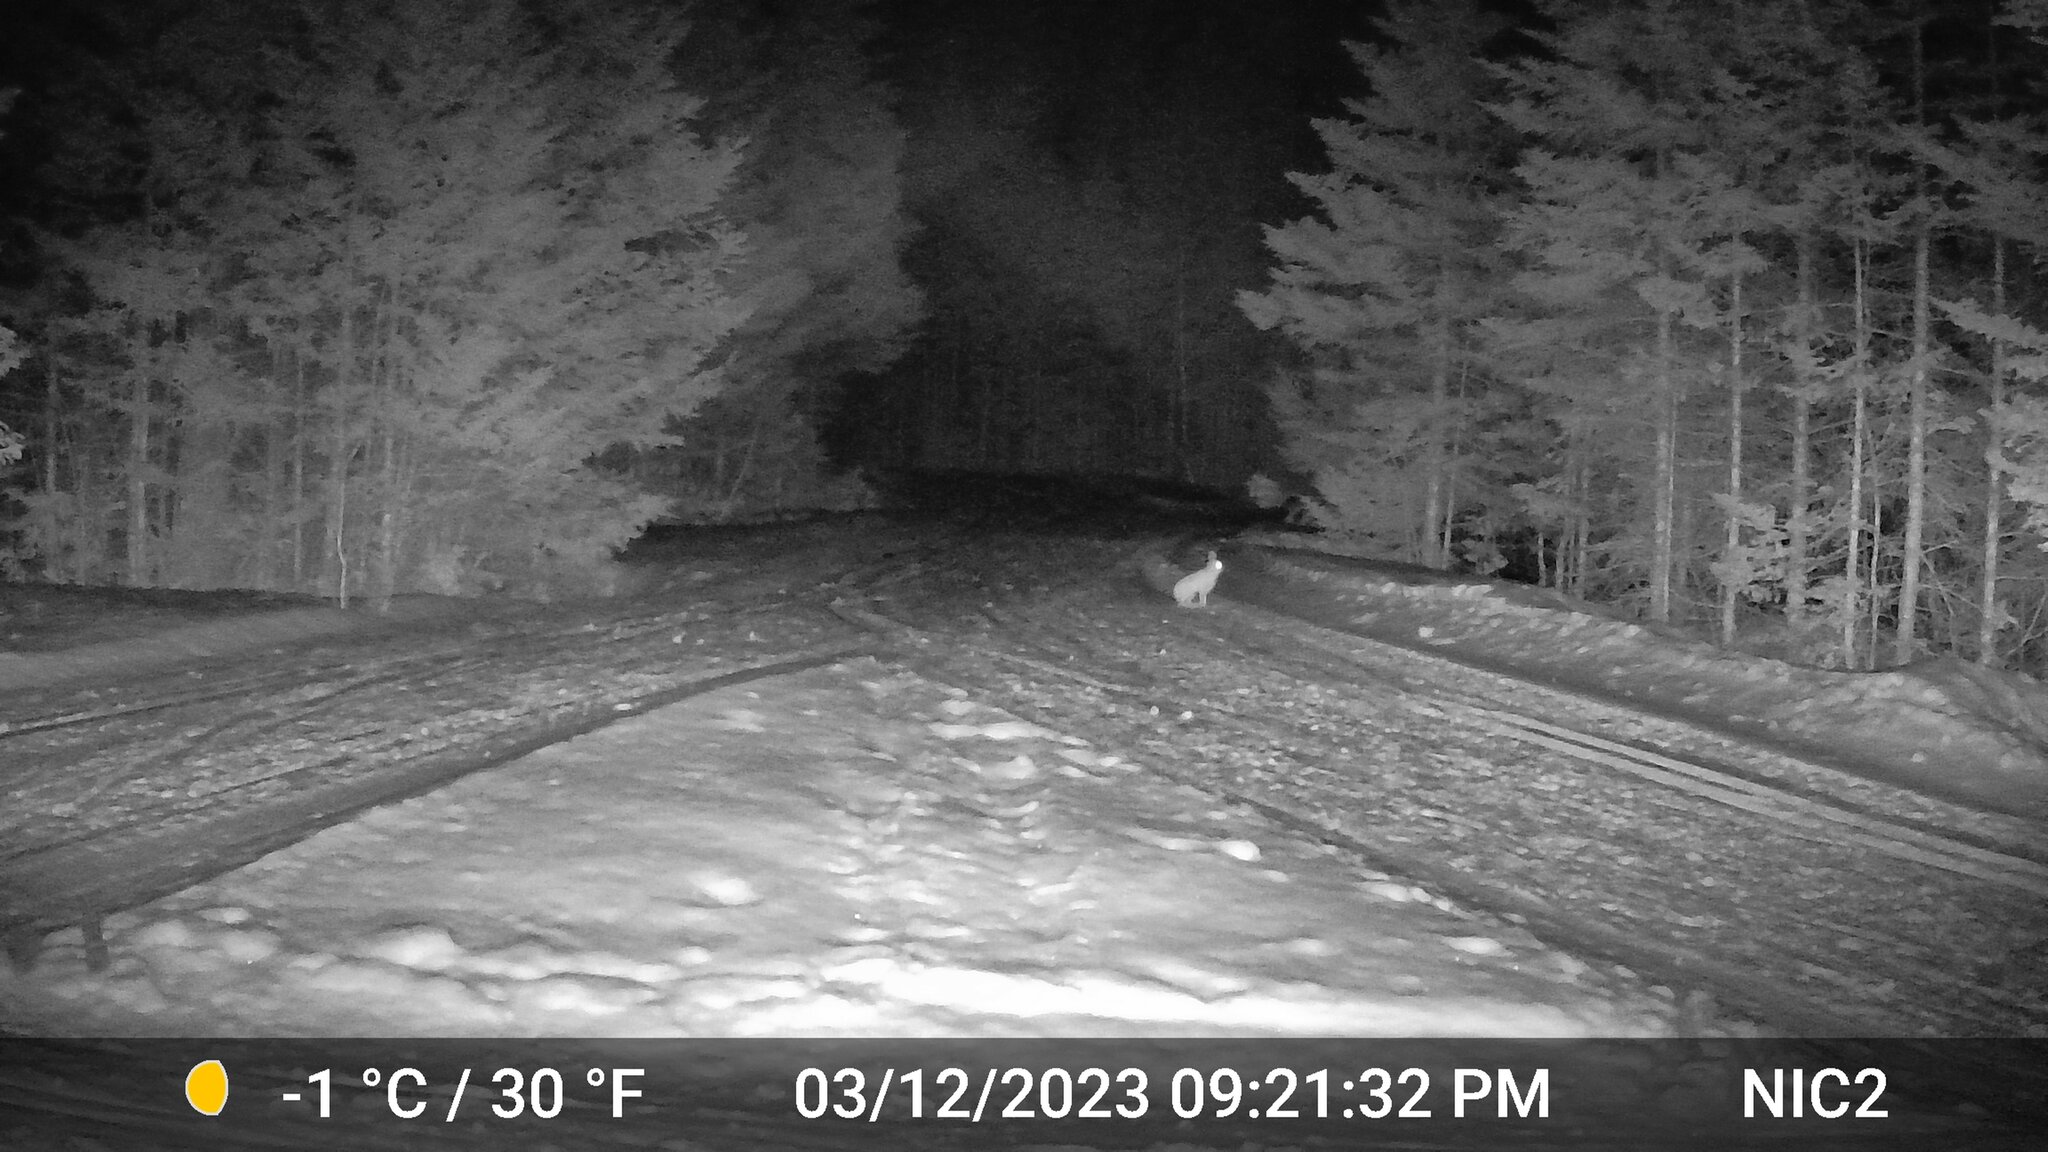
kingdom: Animalia
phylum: Chordata
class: Mammalia
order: Lagomorpha
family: Leporidae
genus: Lepus
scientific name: Lepus americanus
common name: Snowshoe hare
